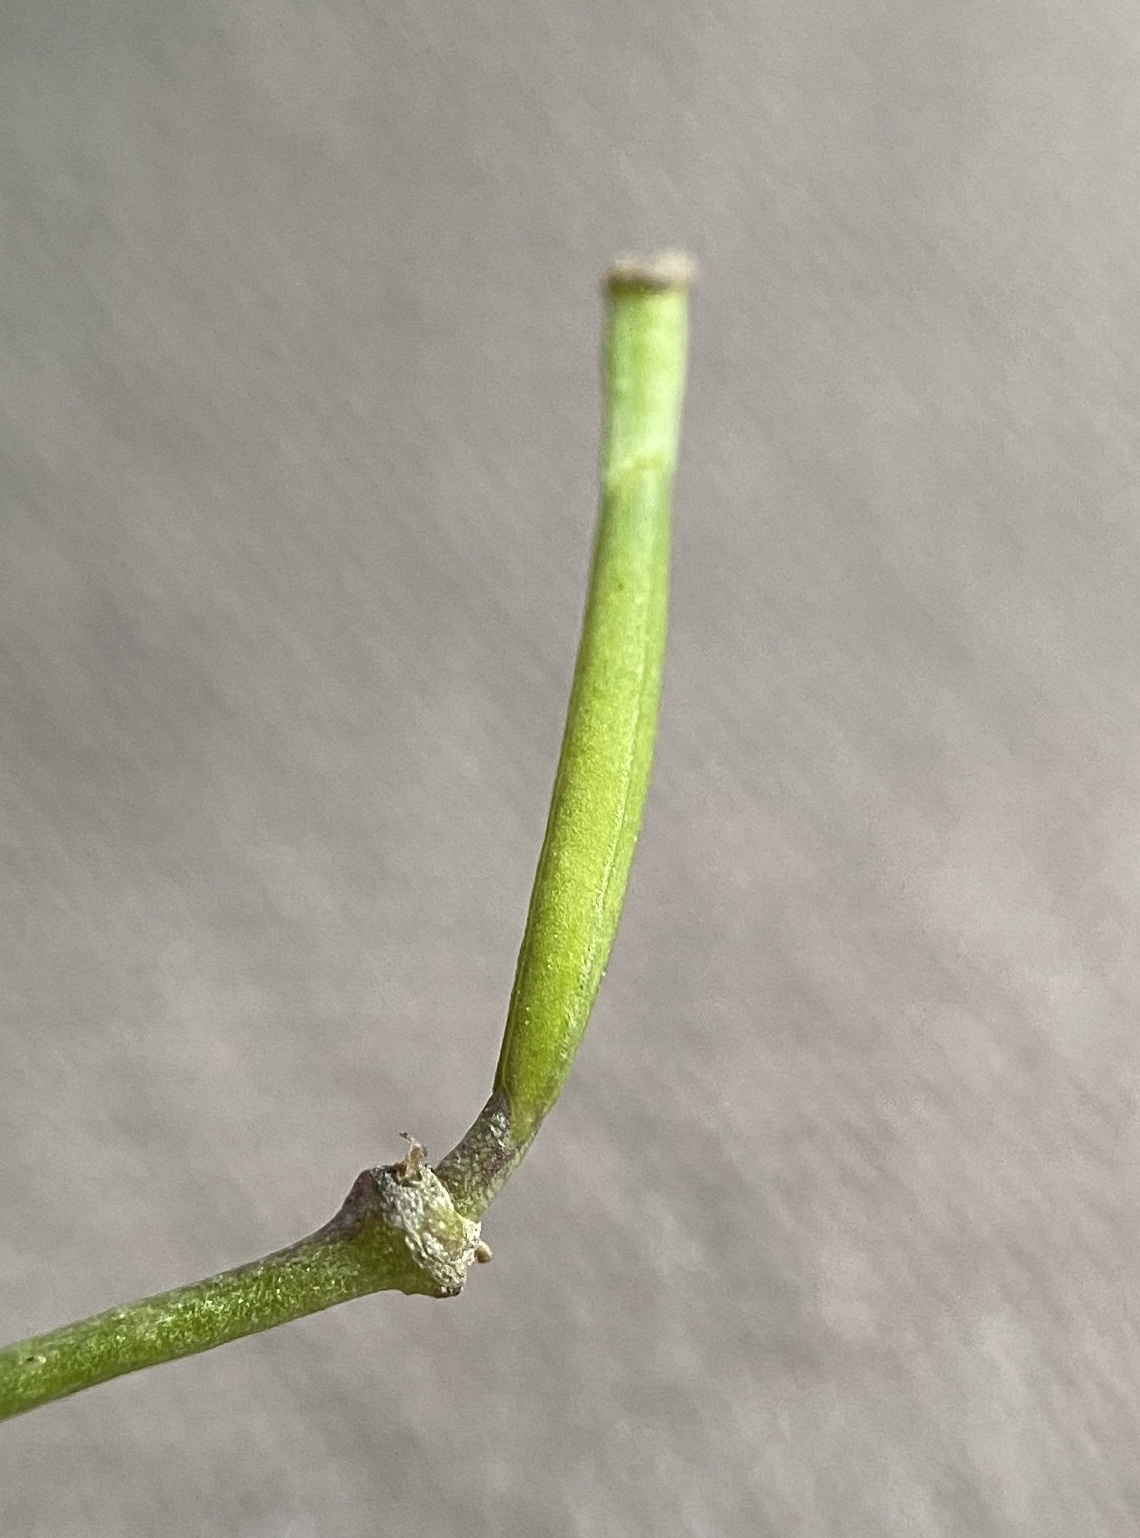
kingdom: Plantae
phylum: Tracheophyta
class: Magnoliopsida
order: Brassicales
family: Brassicaceae
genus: Diplotaxis
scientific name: Diplotaxis tenuifolia
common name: Perennial wall-rocket
